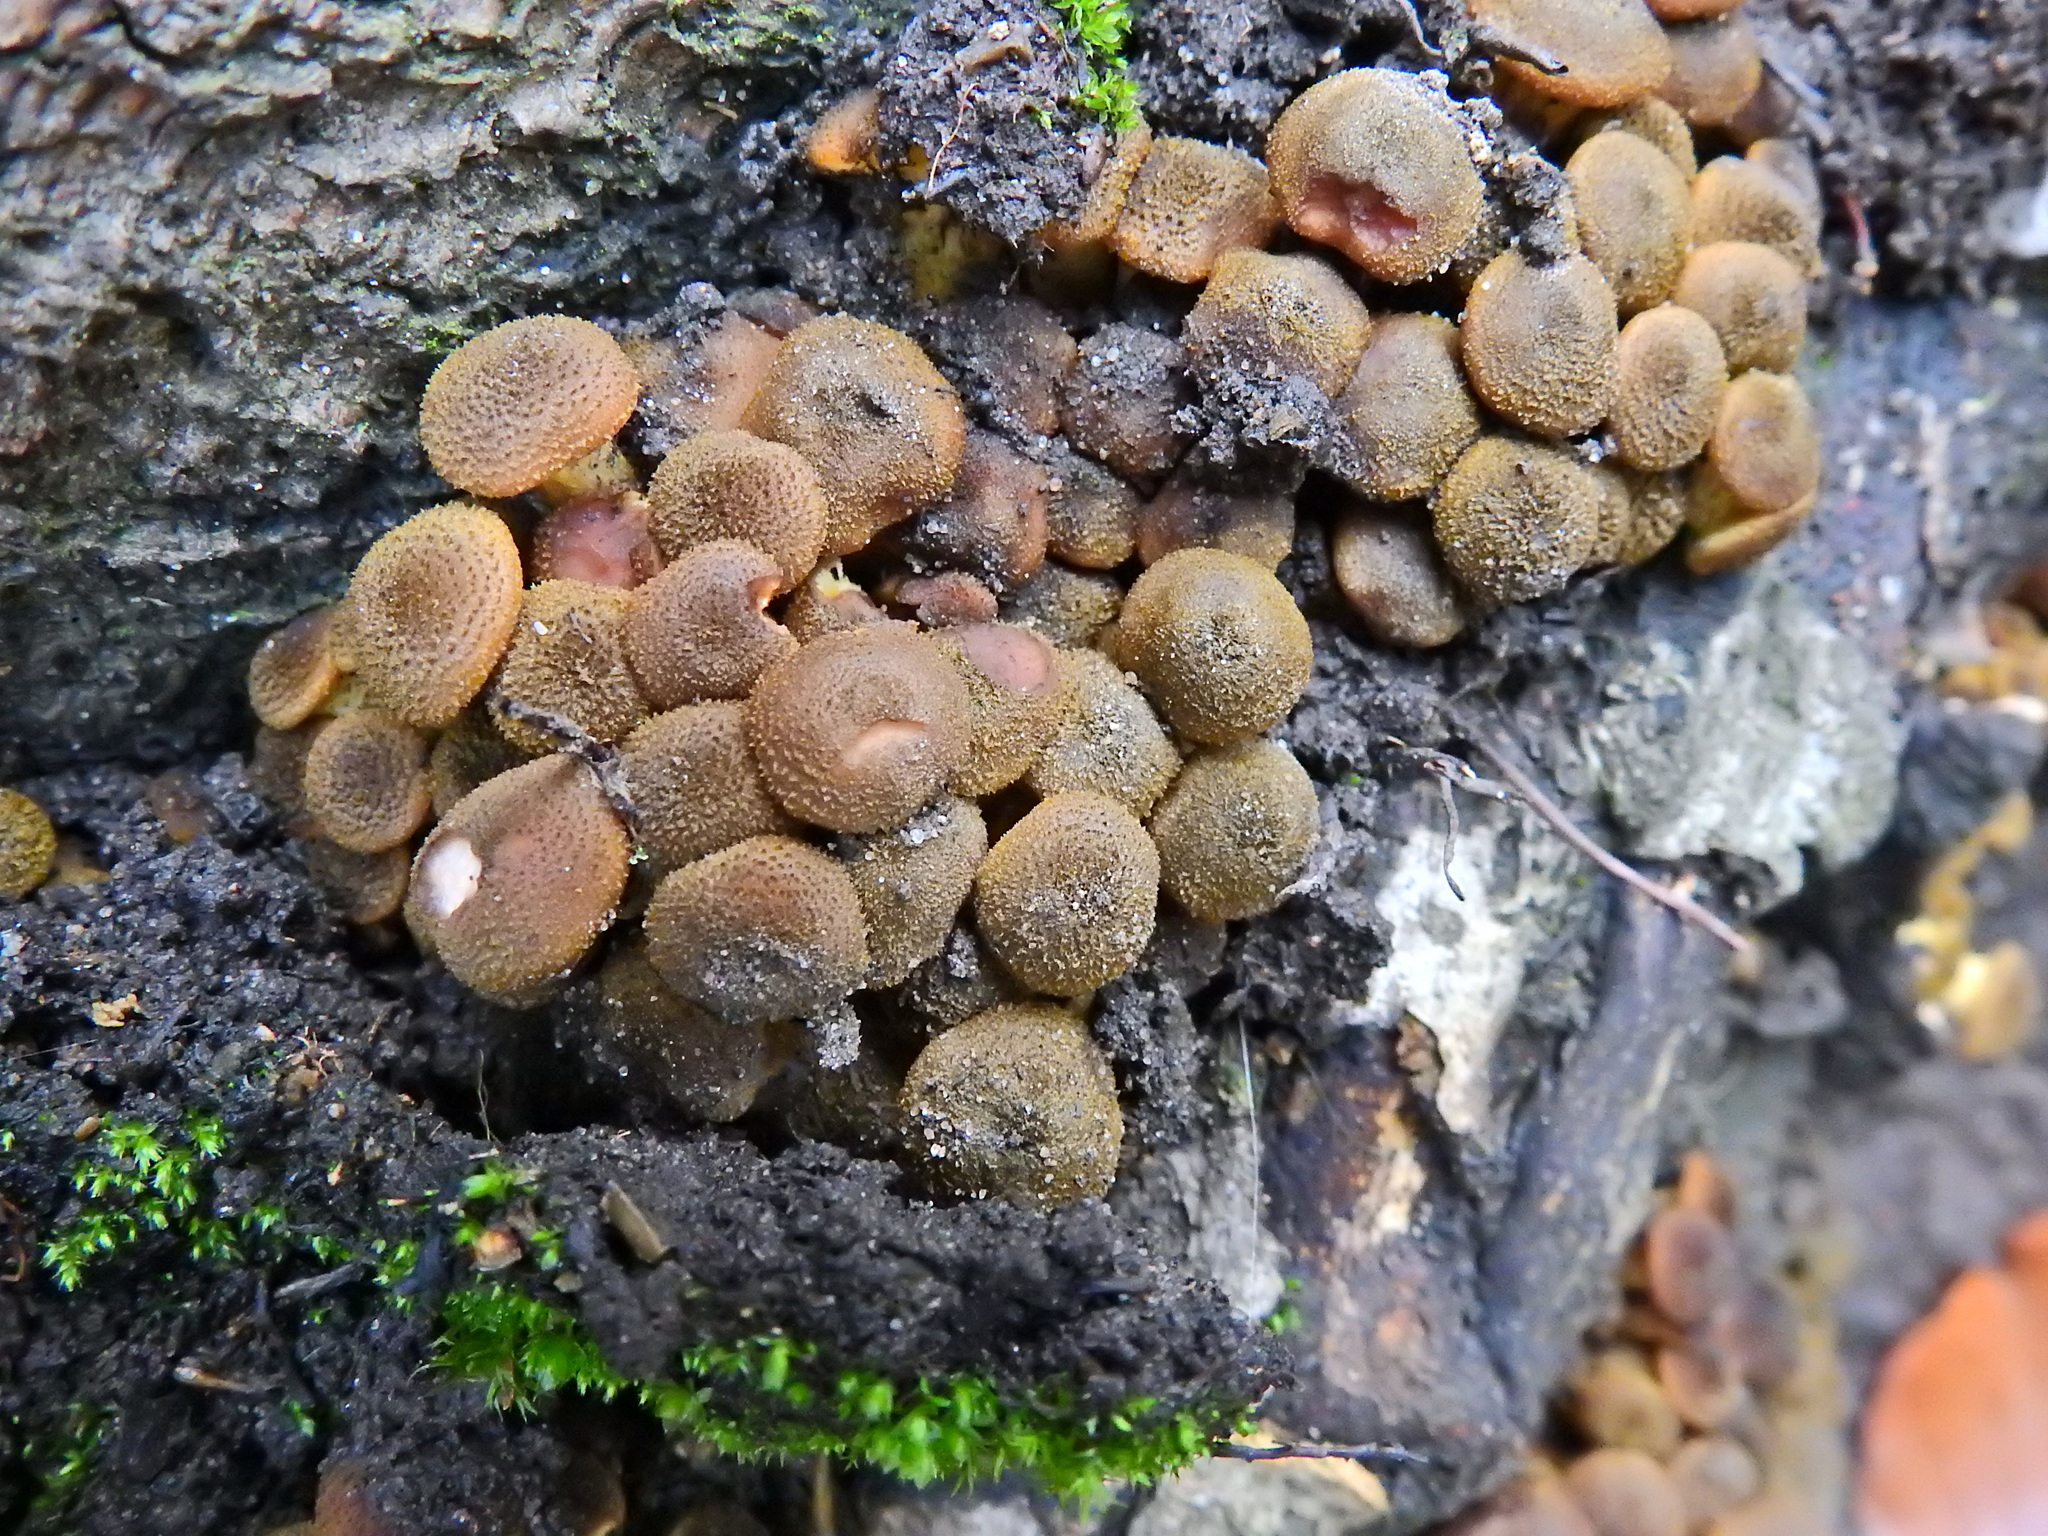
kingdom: Fungi
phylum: Basidiomycota
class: Agaricomycetes
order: Agaricales
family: Physalacriaceae
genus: Armillaria
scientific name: Armillaria mellea
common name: Honey fungus
